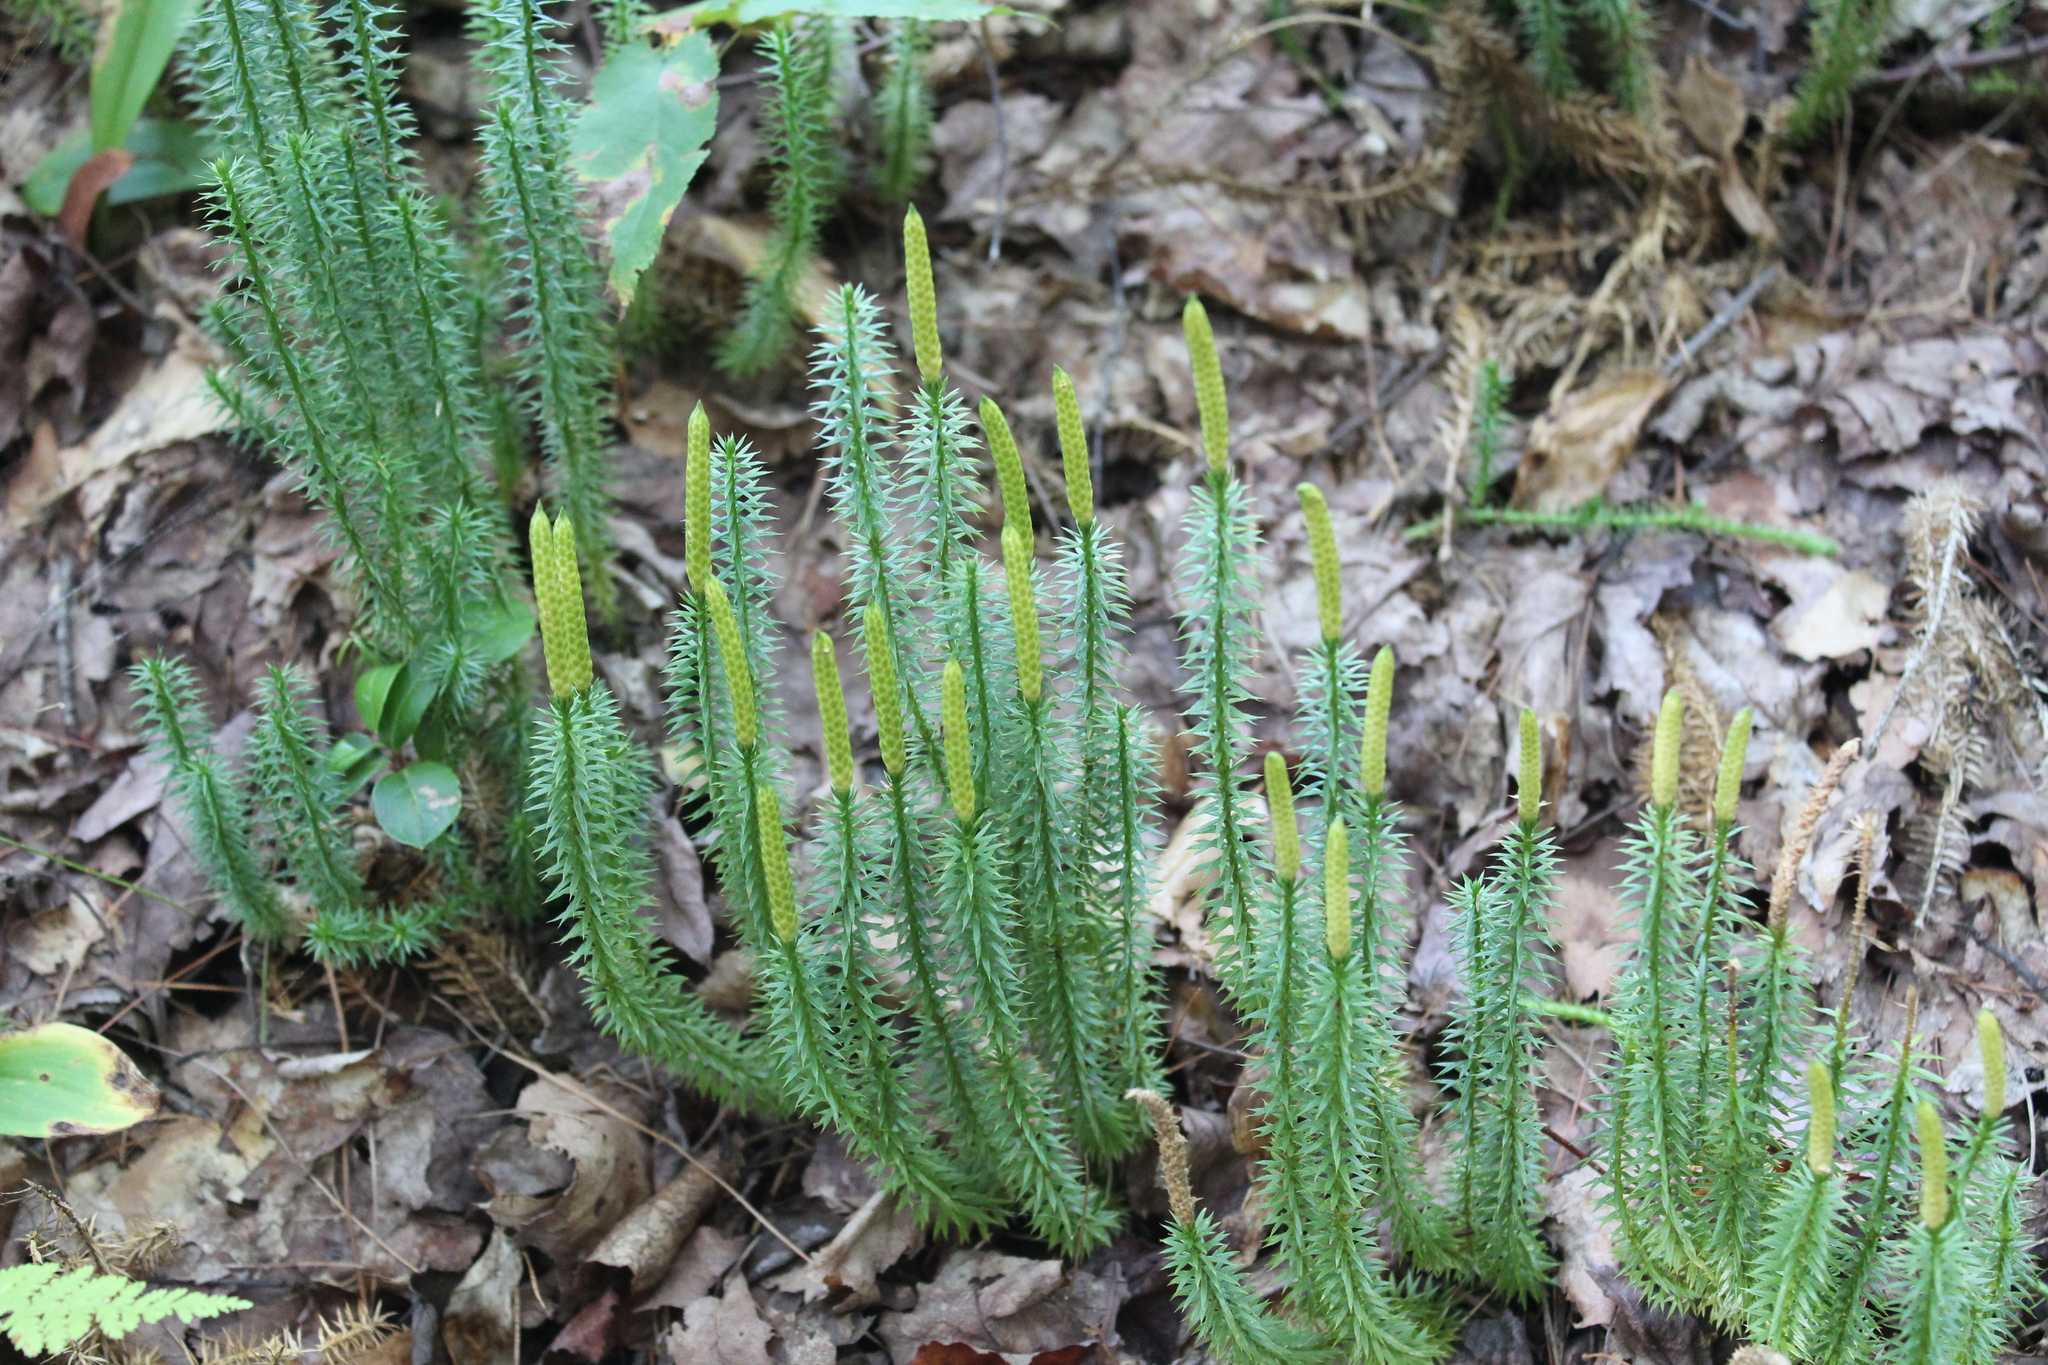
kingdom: Plantae
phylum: Tracheophyta
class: Lycopodiopsida
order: Lycopodiales
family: Lycopodiaceae
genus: Spinulum
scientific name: Spinulum annotinum
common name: Interrupted club-moss
